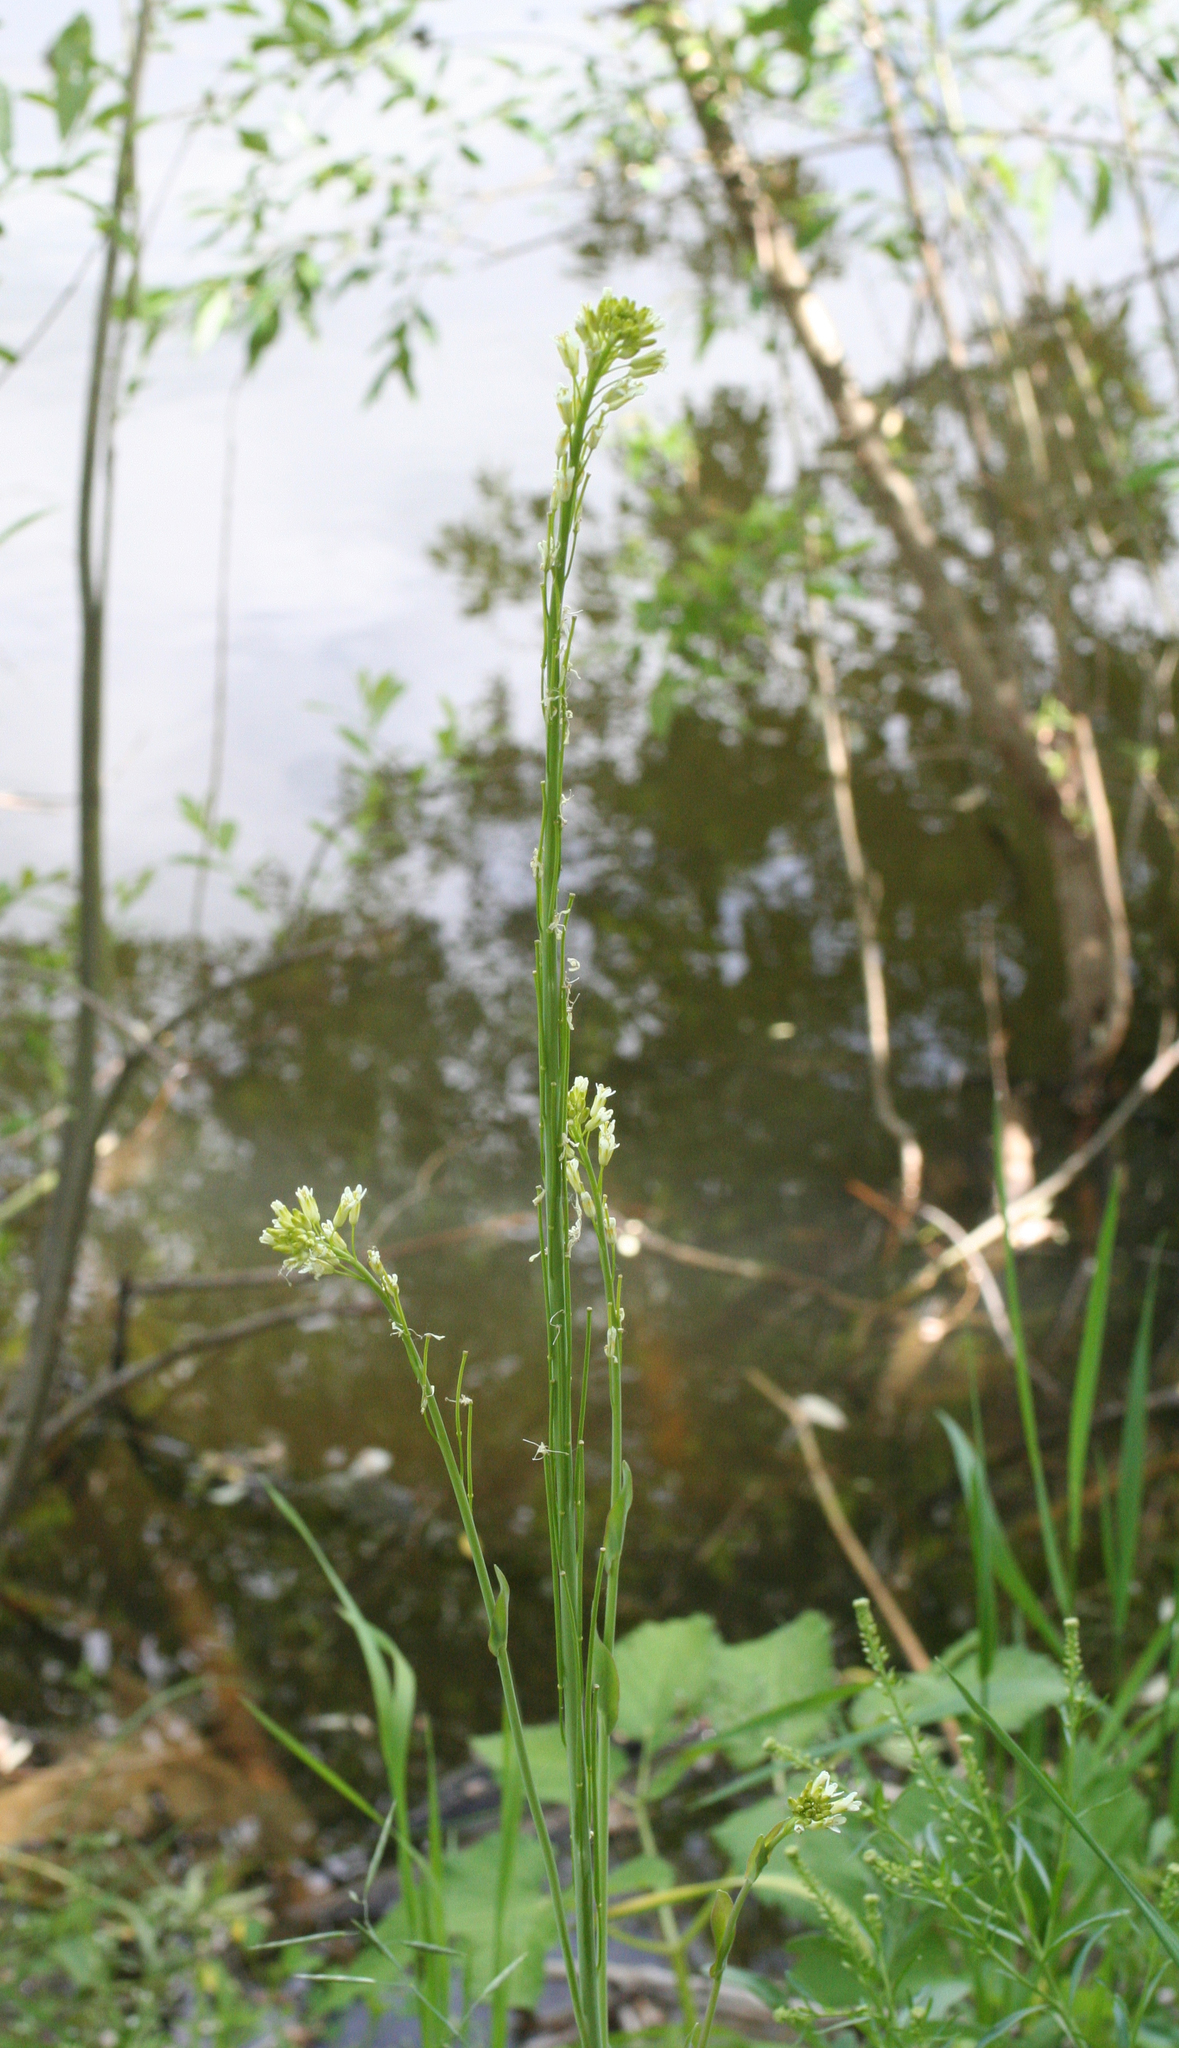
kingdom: Plantae
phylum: Tracheophyta
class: Magnoliopsida
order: Brassicales
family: Brassicaceae
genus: Turritis
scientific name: Turritis glabra
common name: Tower rockcress
